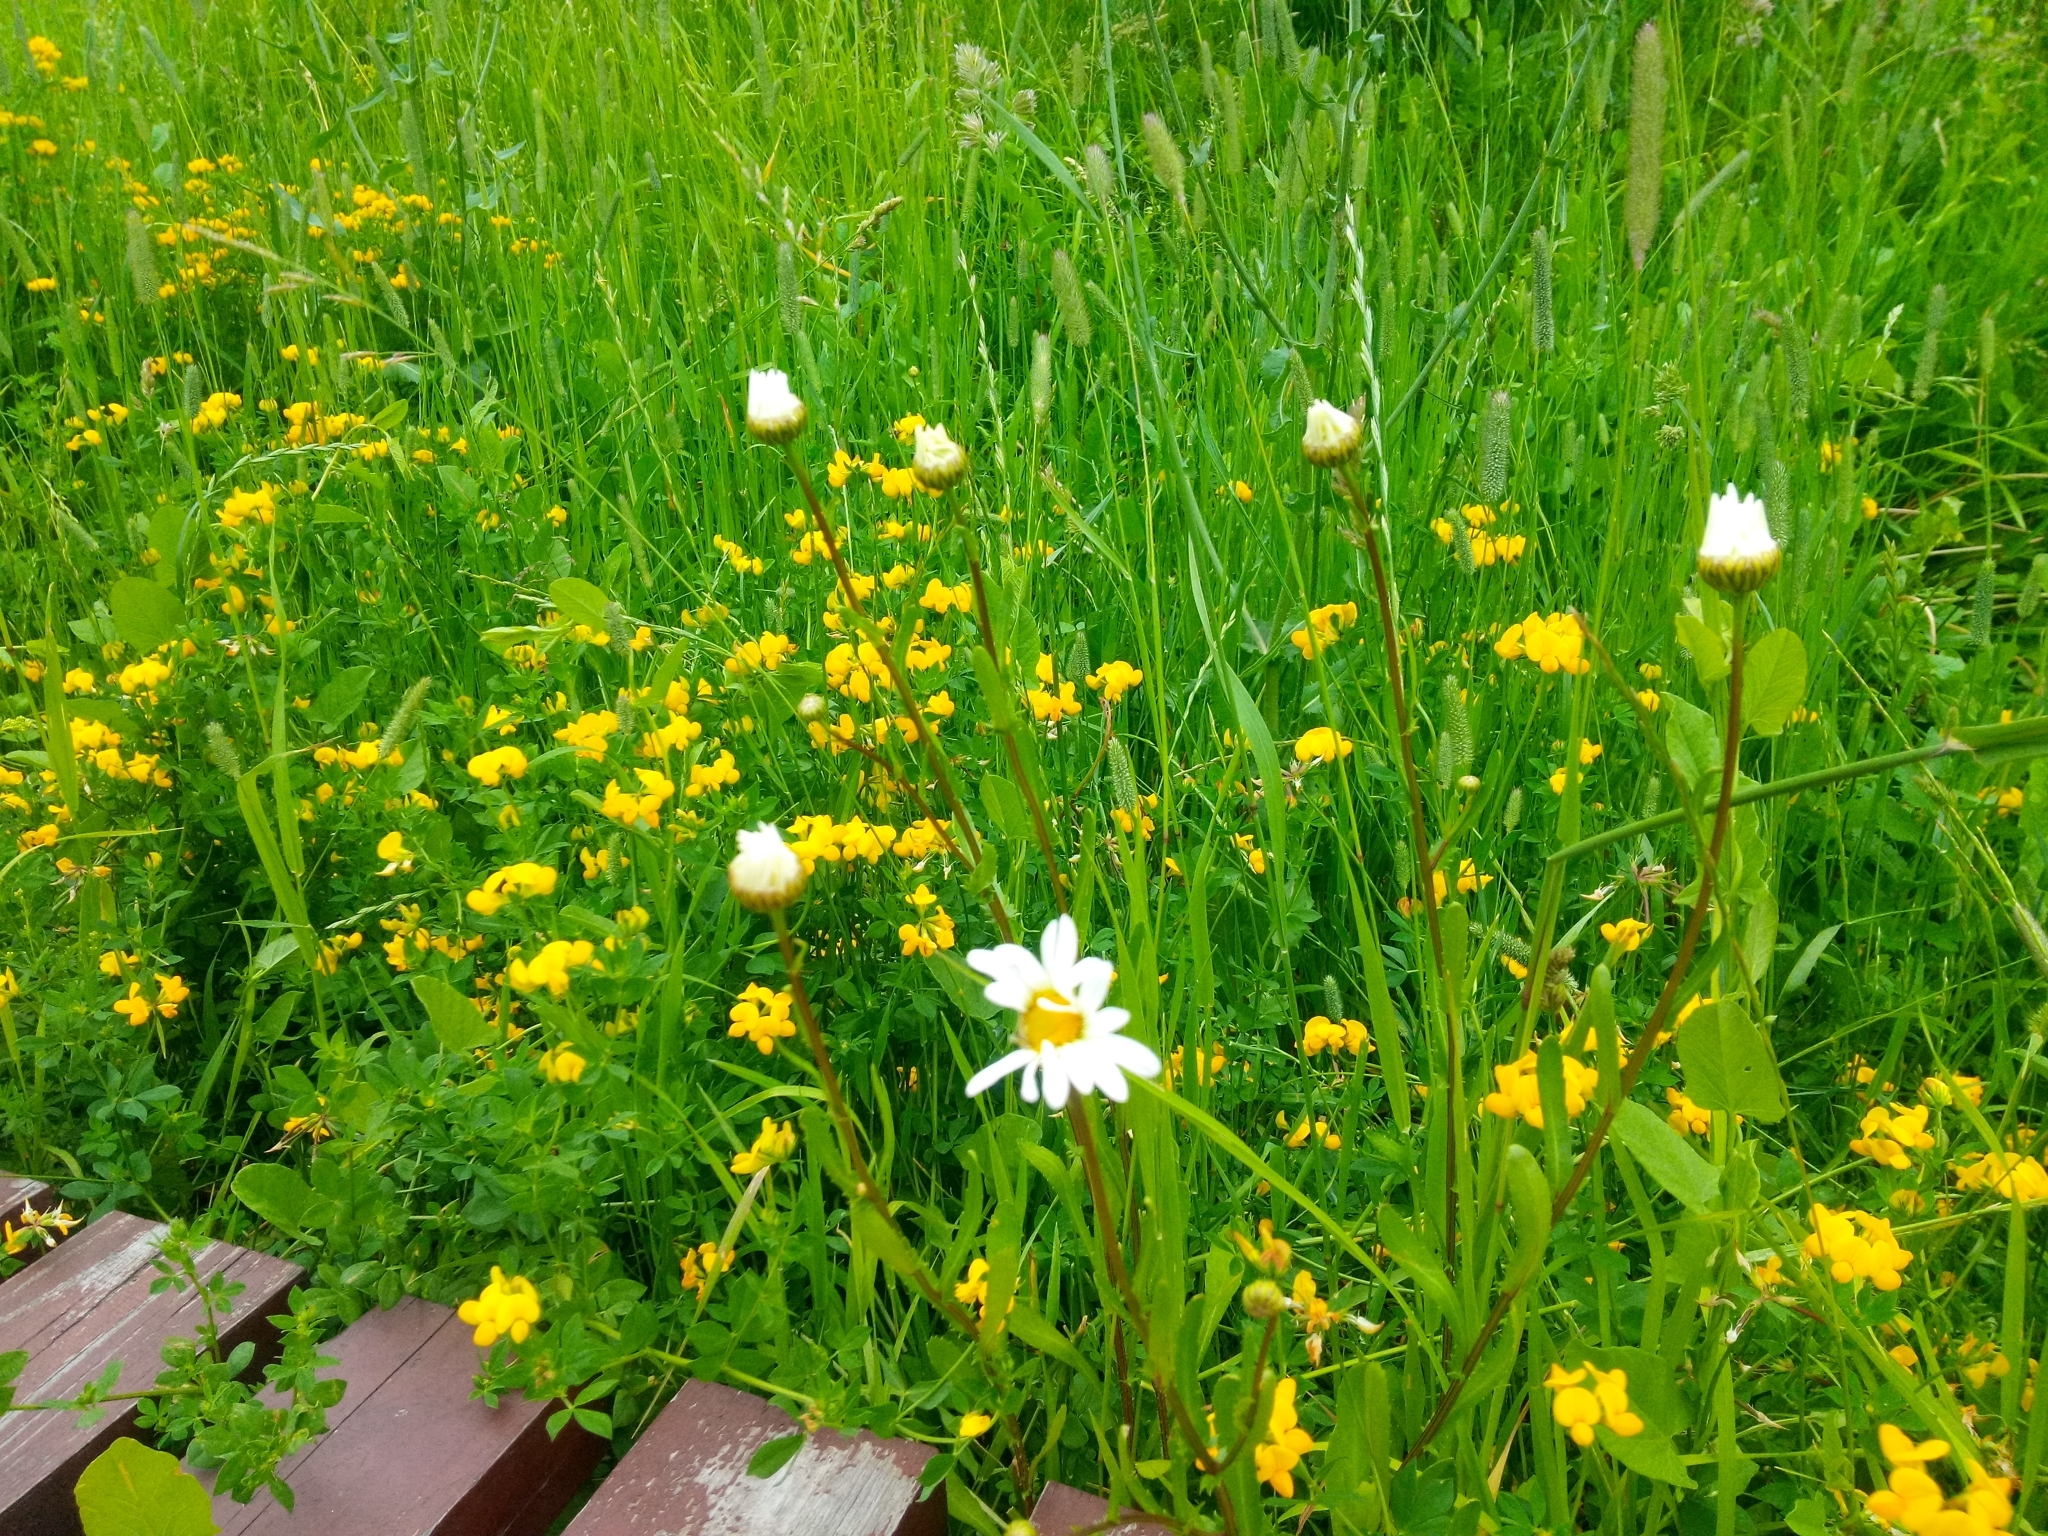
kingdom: Plantae
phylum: Tracheophyta
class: Magnoliopsida
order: Asterales
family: Asteraceae
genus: Leucanthemum
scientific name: Leucanthemum vulgare
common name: Oxeye daisy
